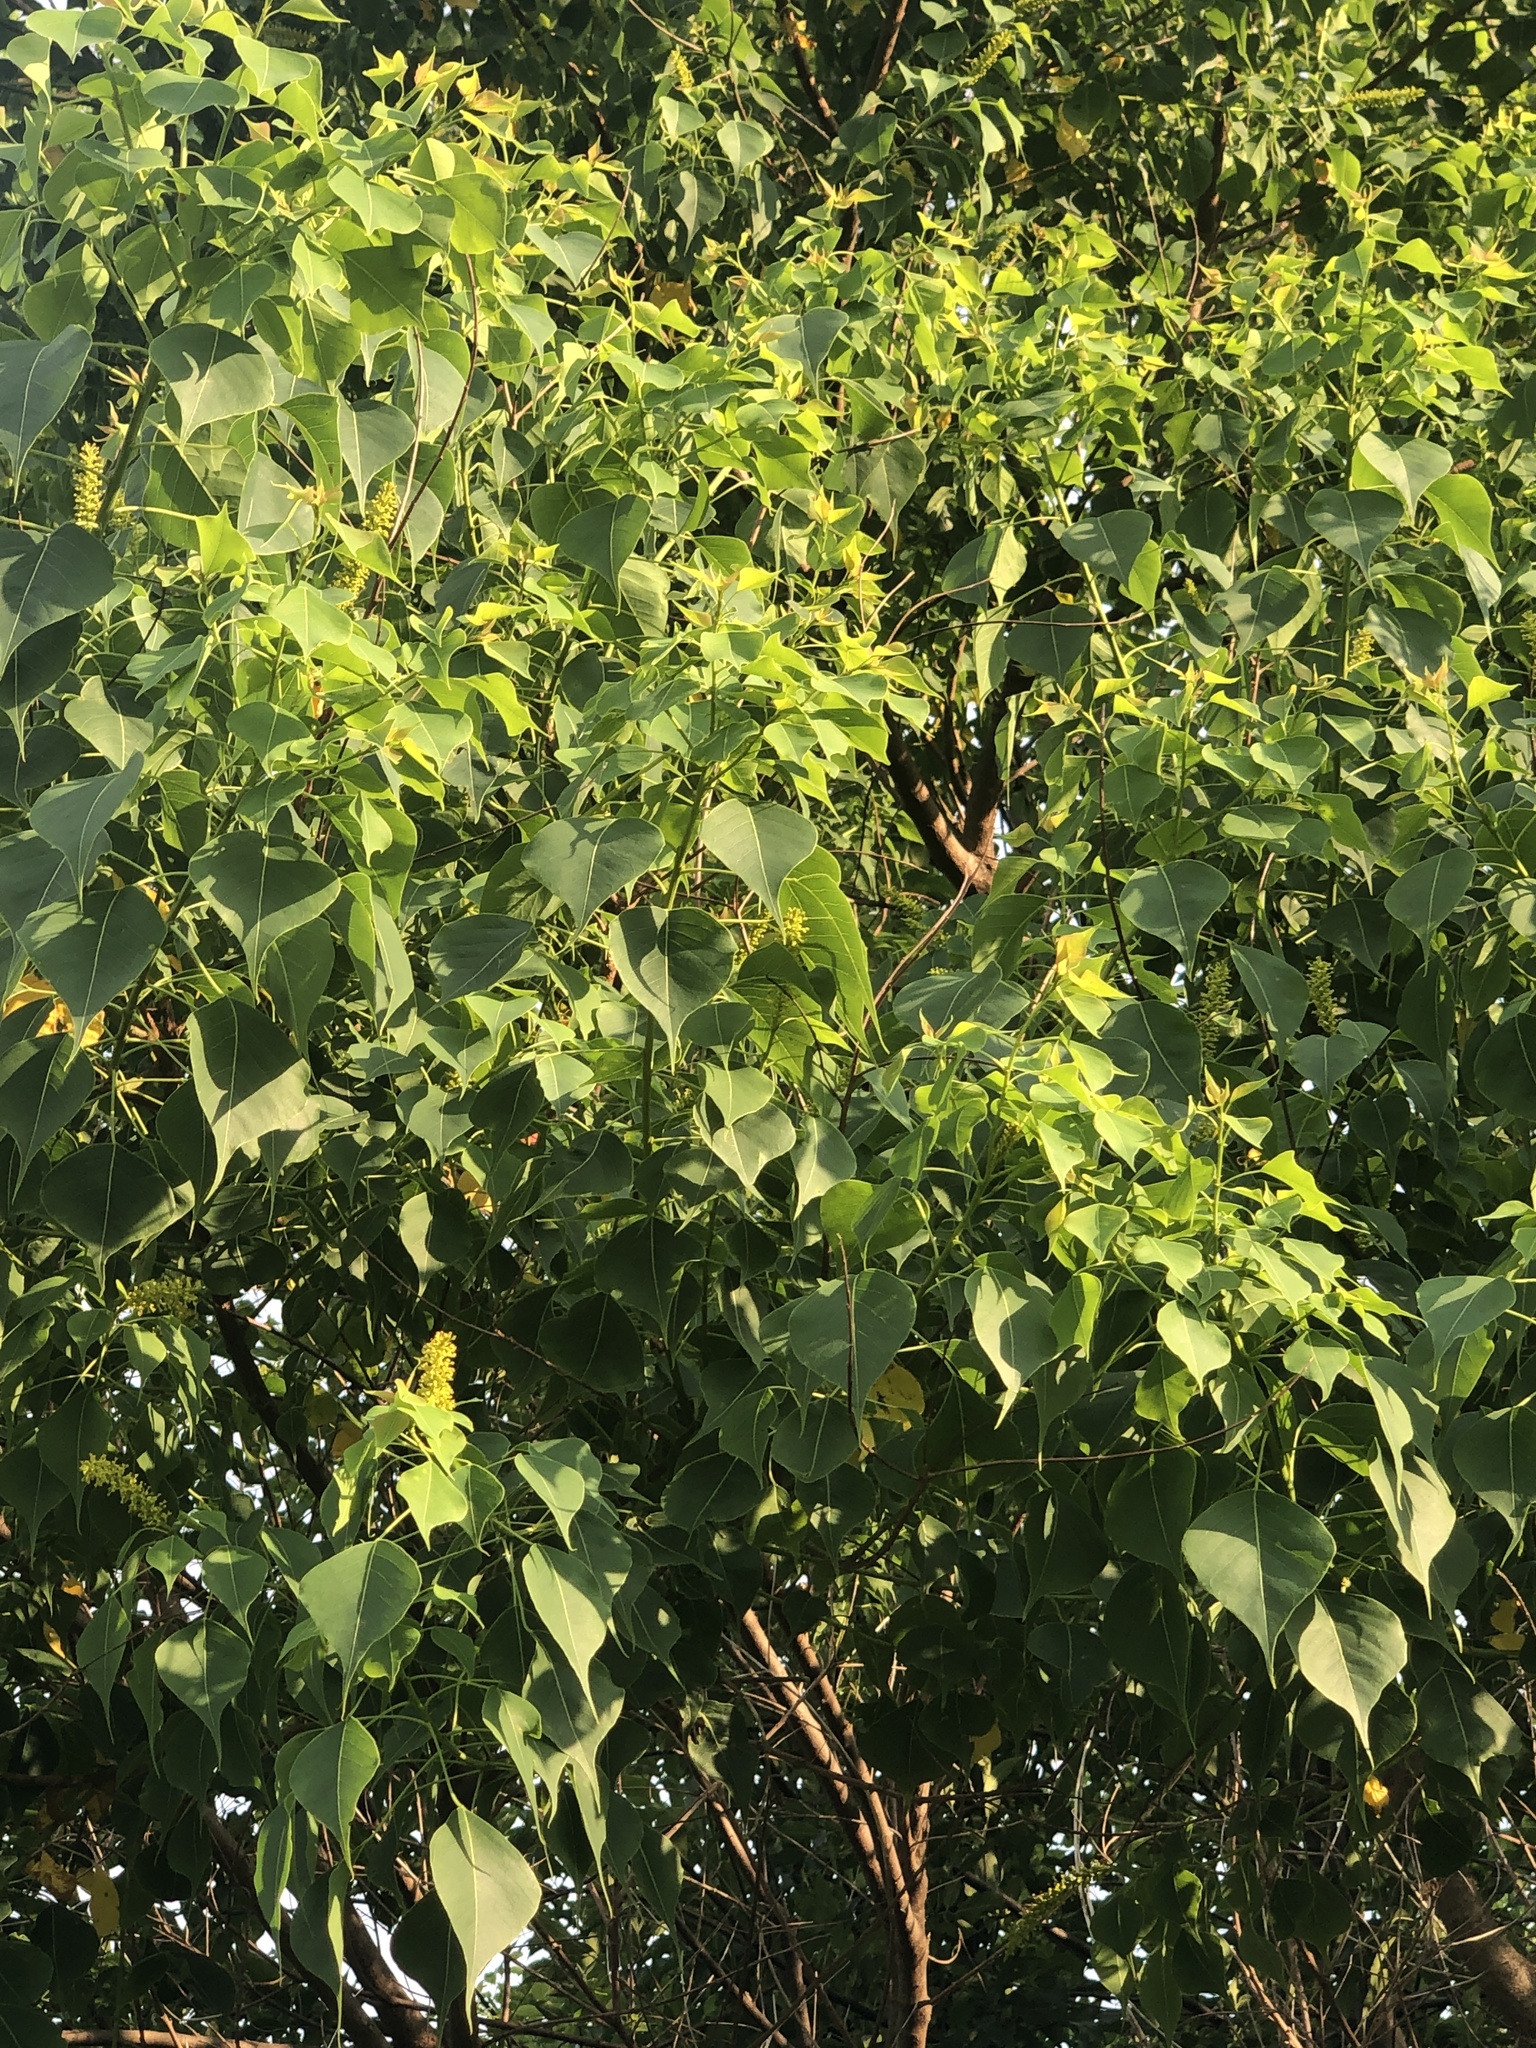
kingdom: Plantae
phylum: Tracheophyta
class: Magnoliopsida
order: Malpighiales
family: Euphorbiaceae
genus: Triadica
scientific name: Triadica sebifera
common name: Chinese tallow
